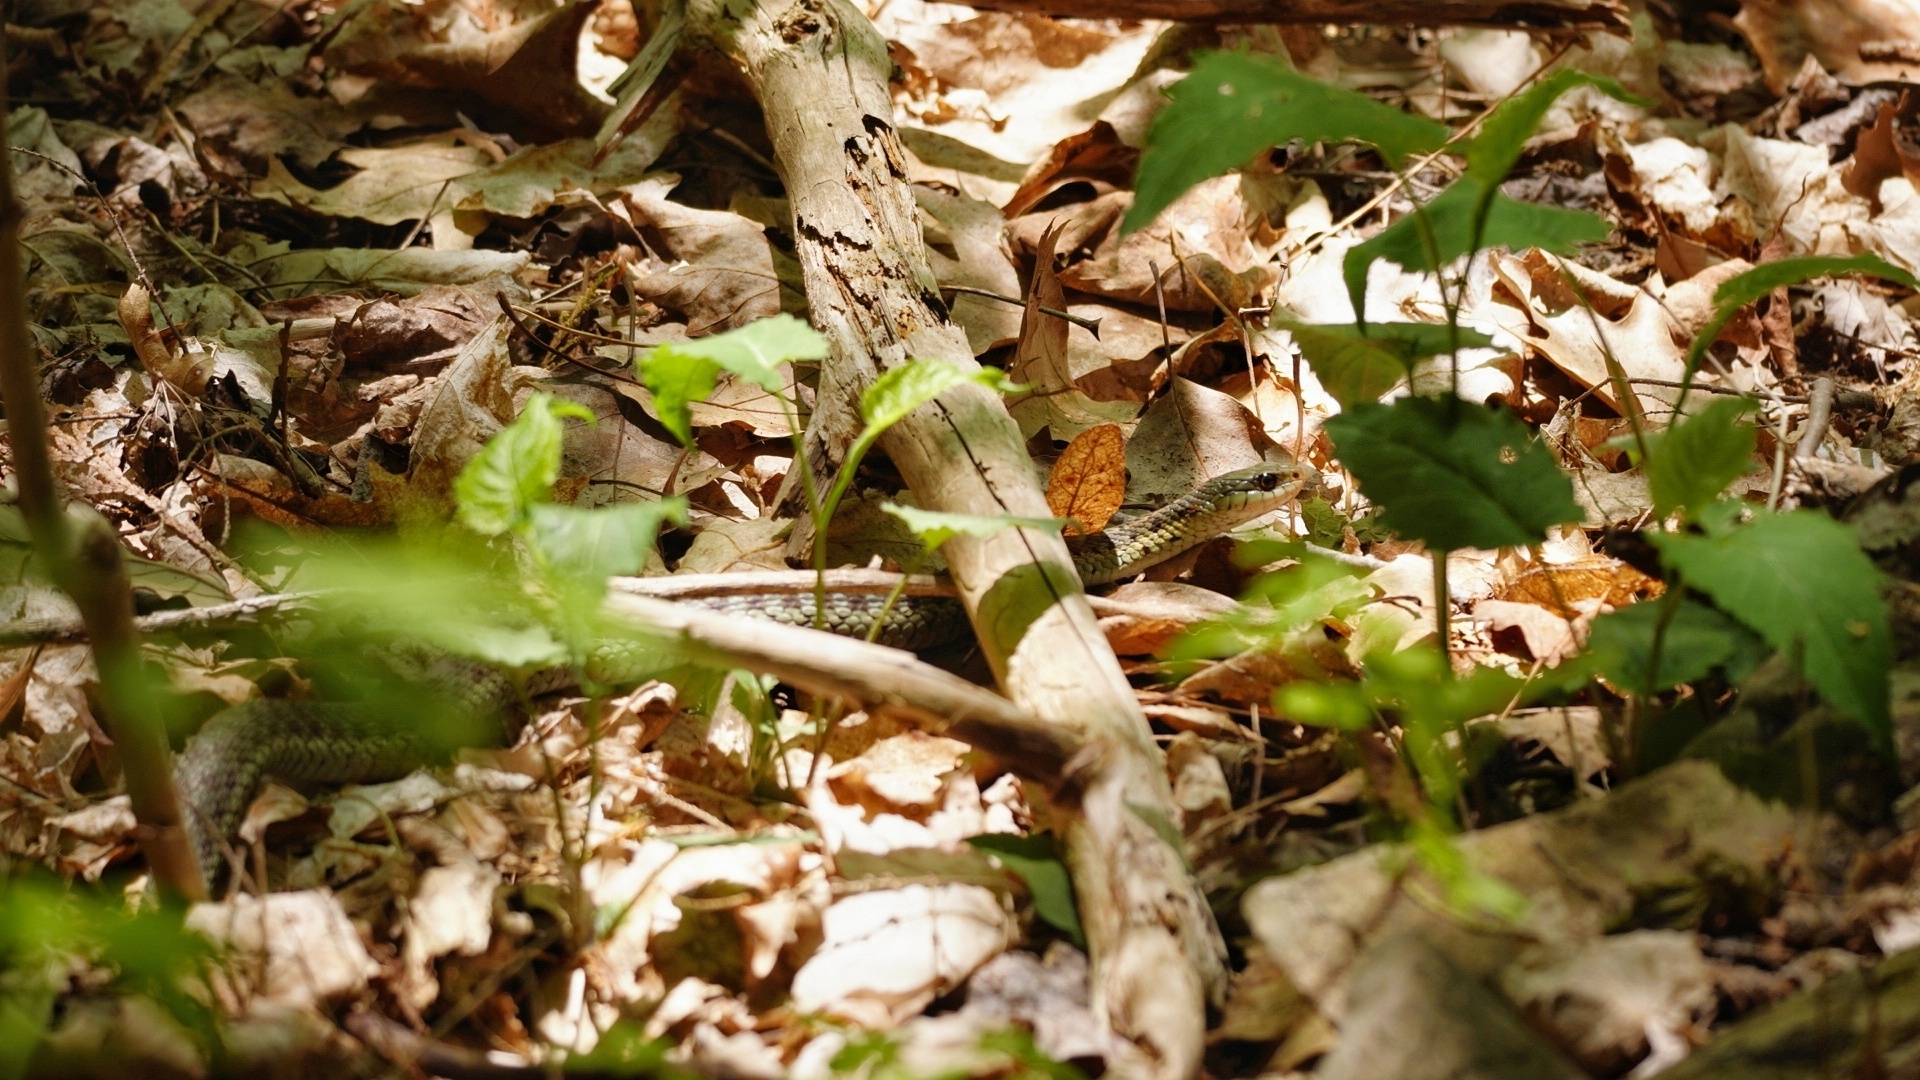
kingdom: Animalia
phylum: Chordata
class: Squamata
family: Colubridae
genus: Thamnophis
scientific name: Thamnophis sirtalis
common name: Common garter snake
